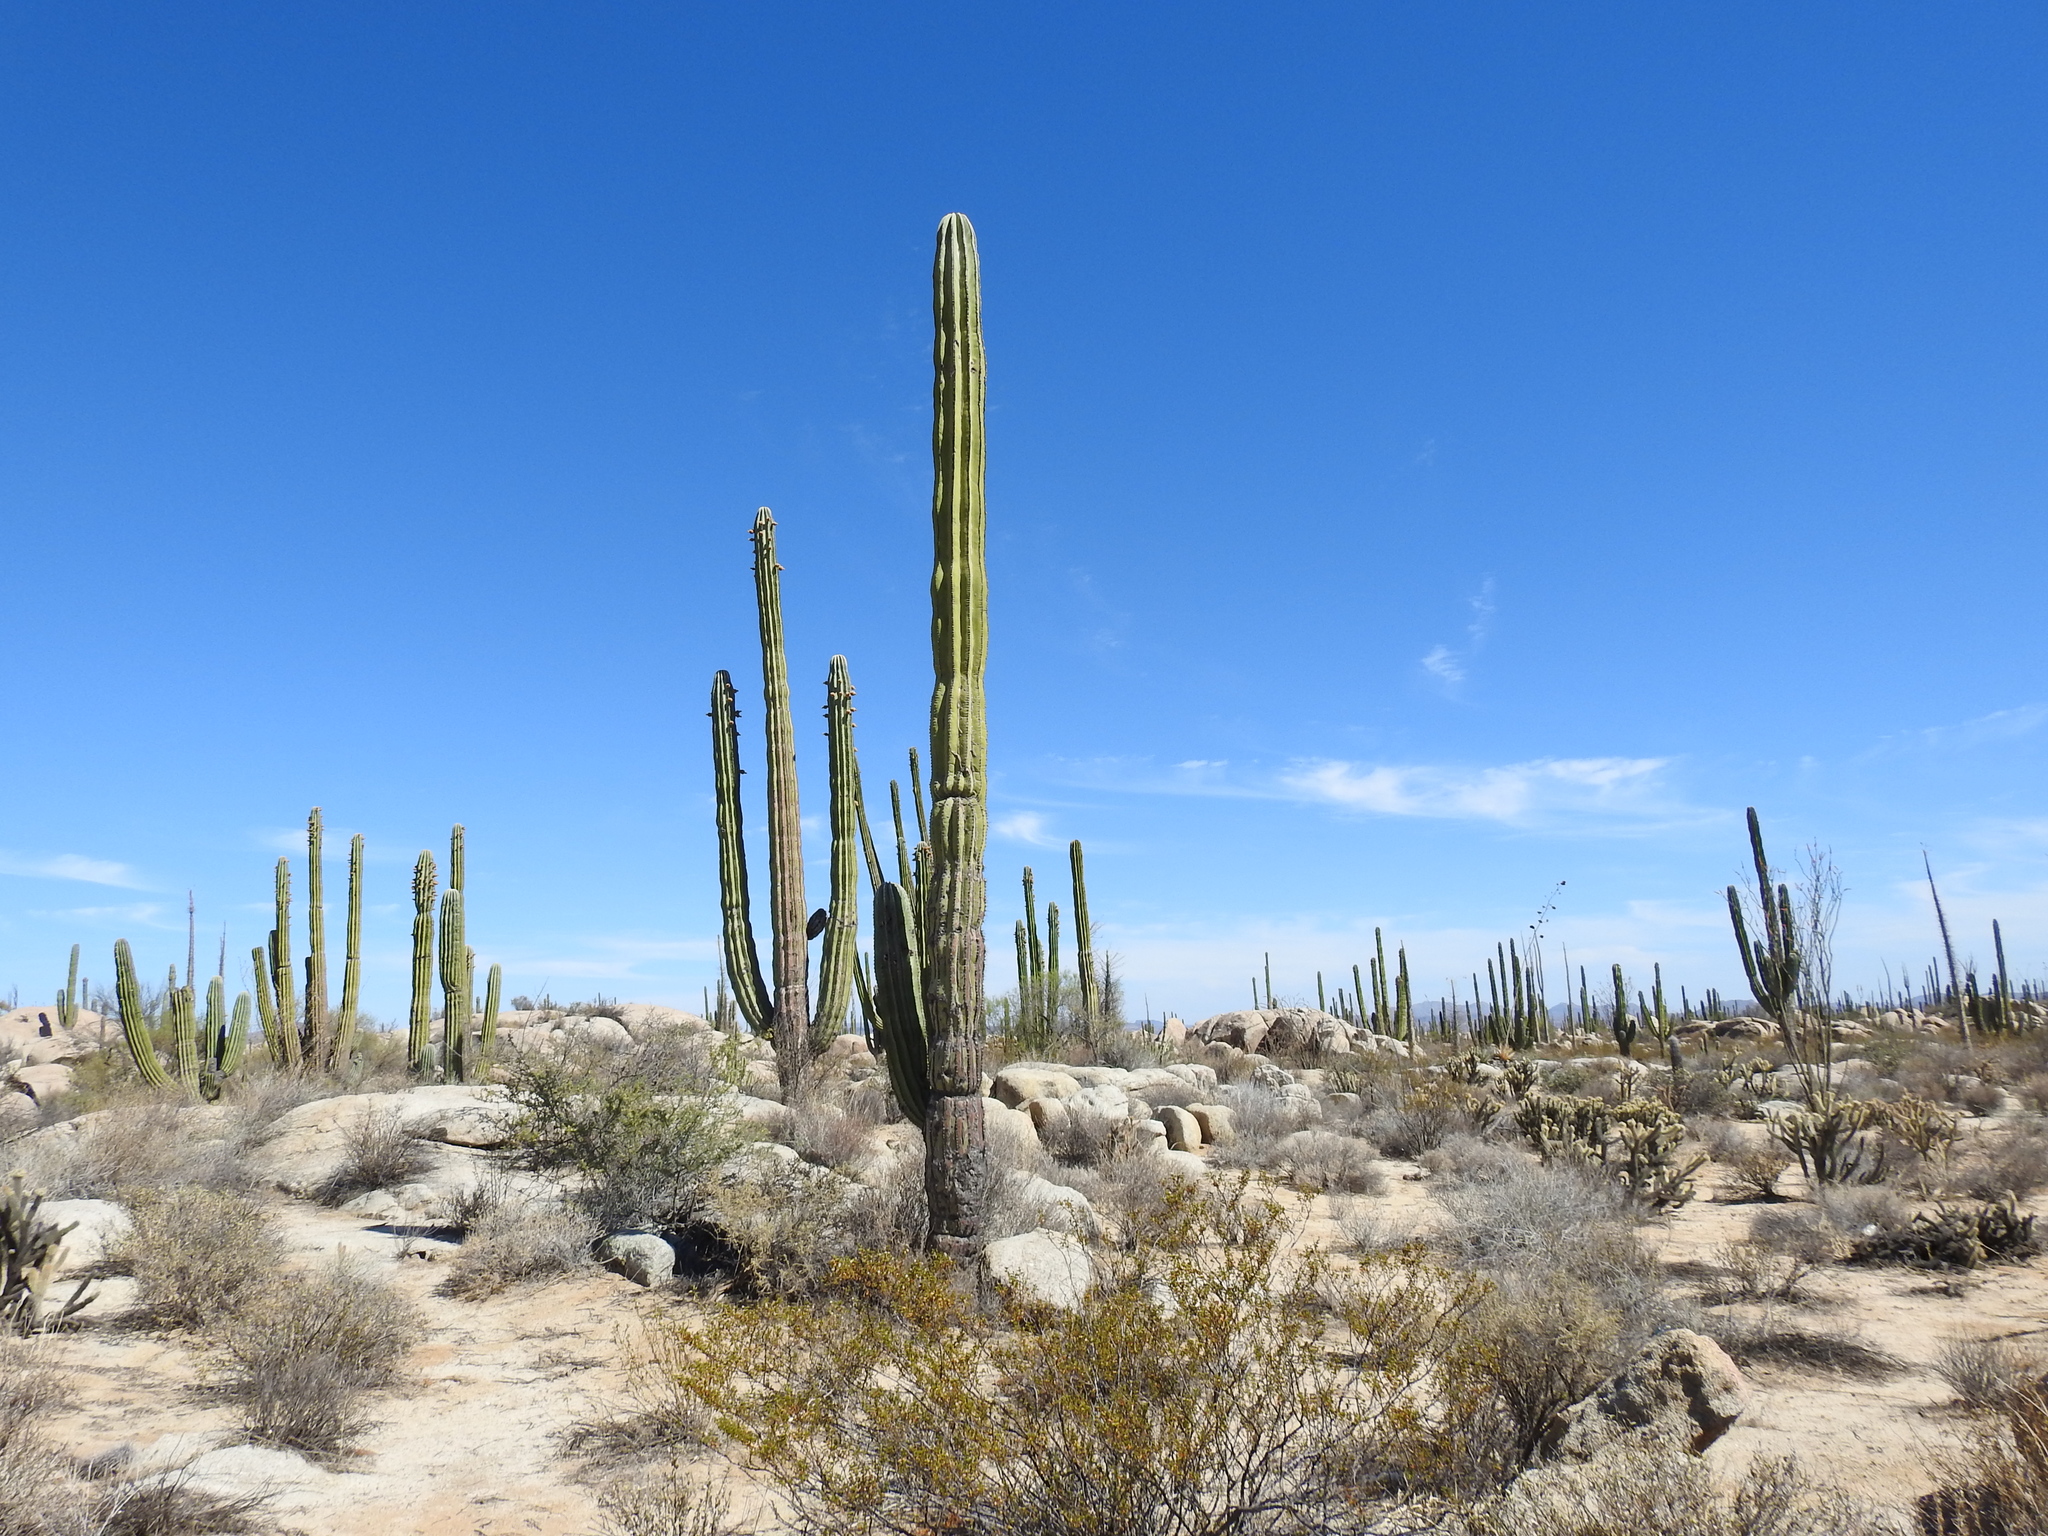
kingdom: Plantae
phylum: Tracheophyta
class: Magnoliopsida
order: Caryophyllales
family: Cactaceae
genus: Pachycereus
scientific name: Pachycereus pringlei
